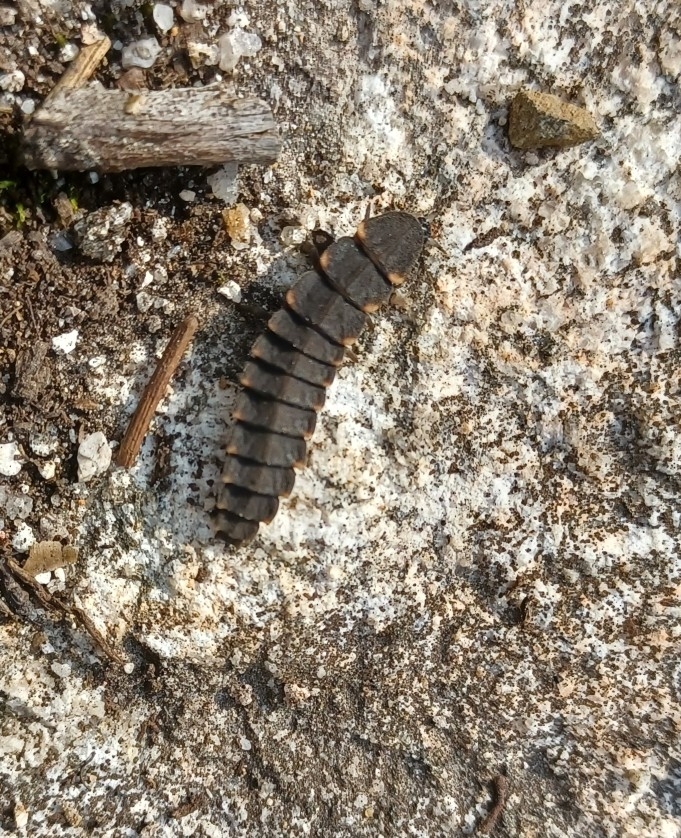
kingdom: Animalia
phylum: Arthropoda
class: Insecta
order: Coleoptera
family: Lampyridae
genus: Lampyris
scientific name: Lampyris noctiluca
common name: Glow-worm
